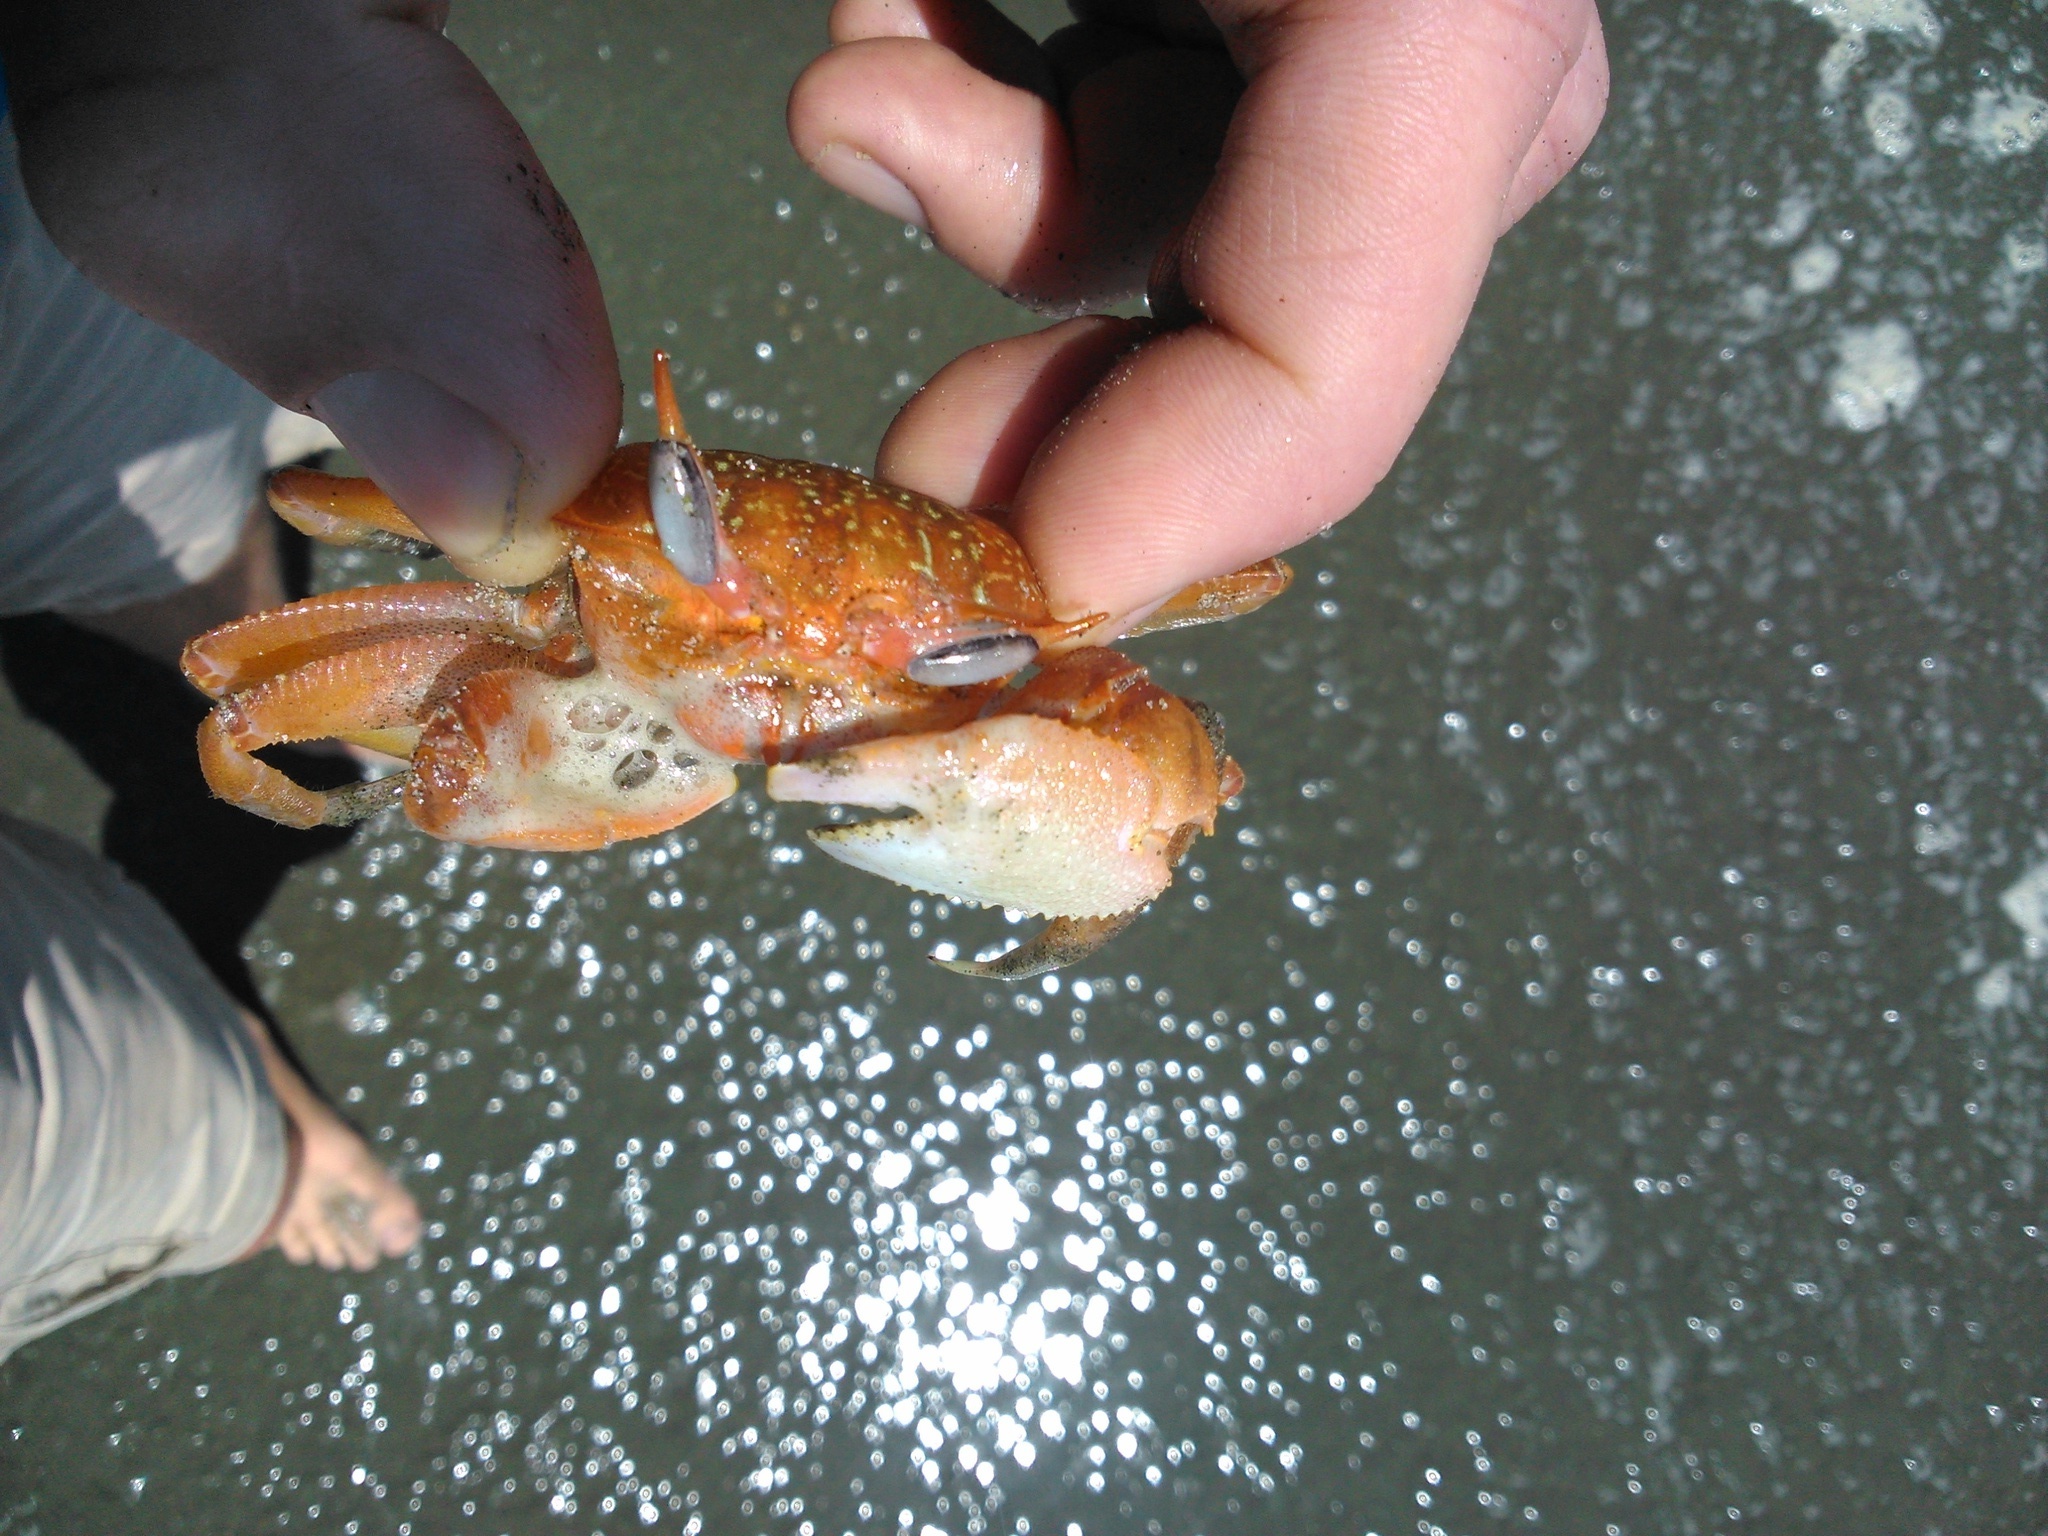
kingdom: Animalia
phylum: Arthropoda
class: Malacostraca
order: Decapoda
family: Ocypodidae
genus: Ocypode
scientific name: Ocypode gaudichaudii
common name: Pacific ghost crab
